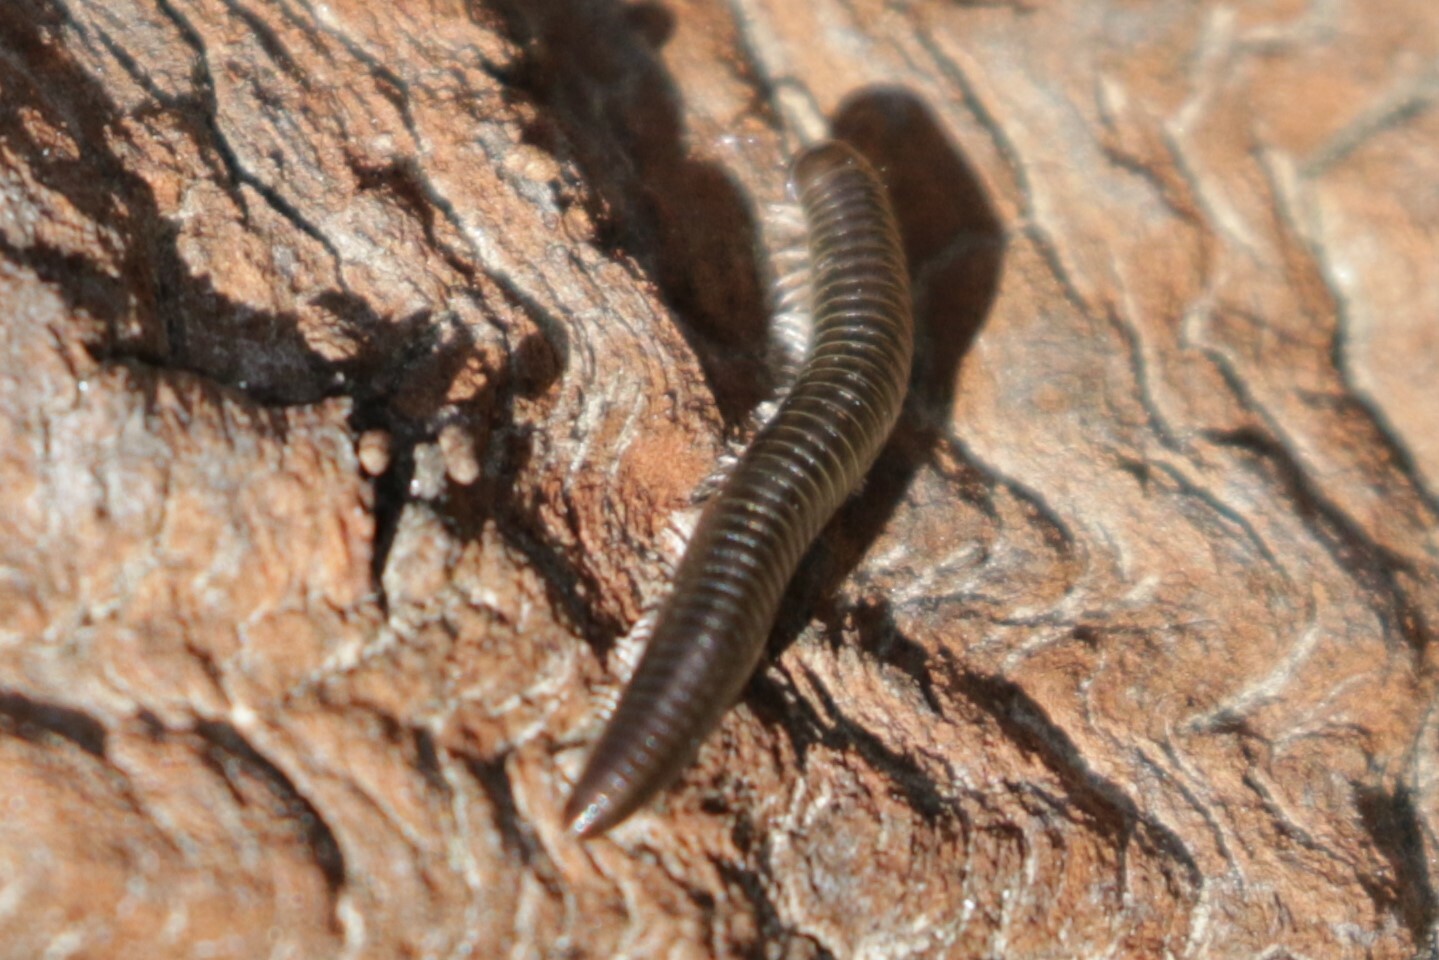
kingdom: Animalia
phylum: Arthropoda
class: Diplopoda
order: Julida
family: Julidae
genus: Ommatoiulus
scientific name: Ommatoiulus moreleti
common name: Portuguese millipede
